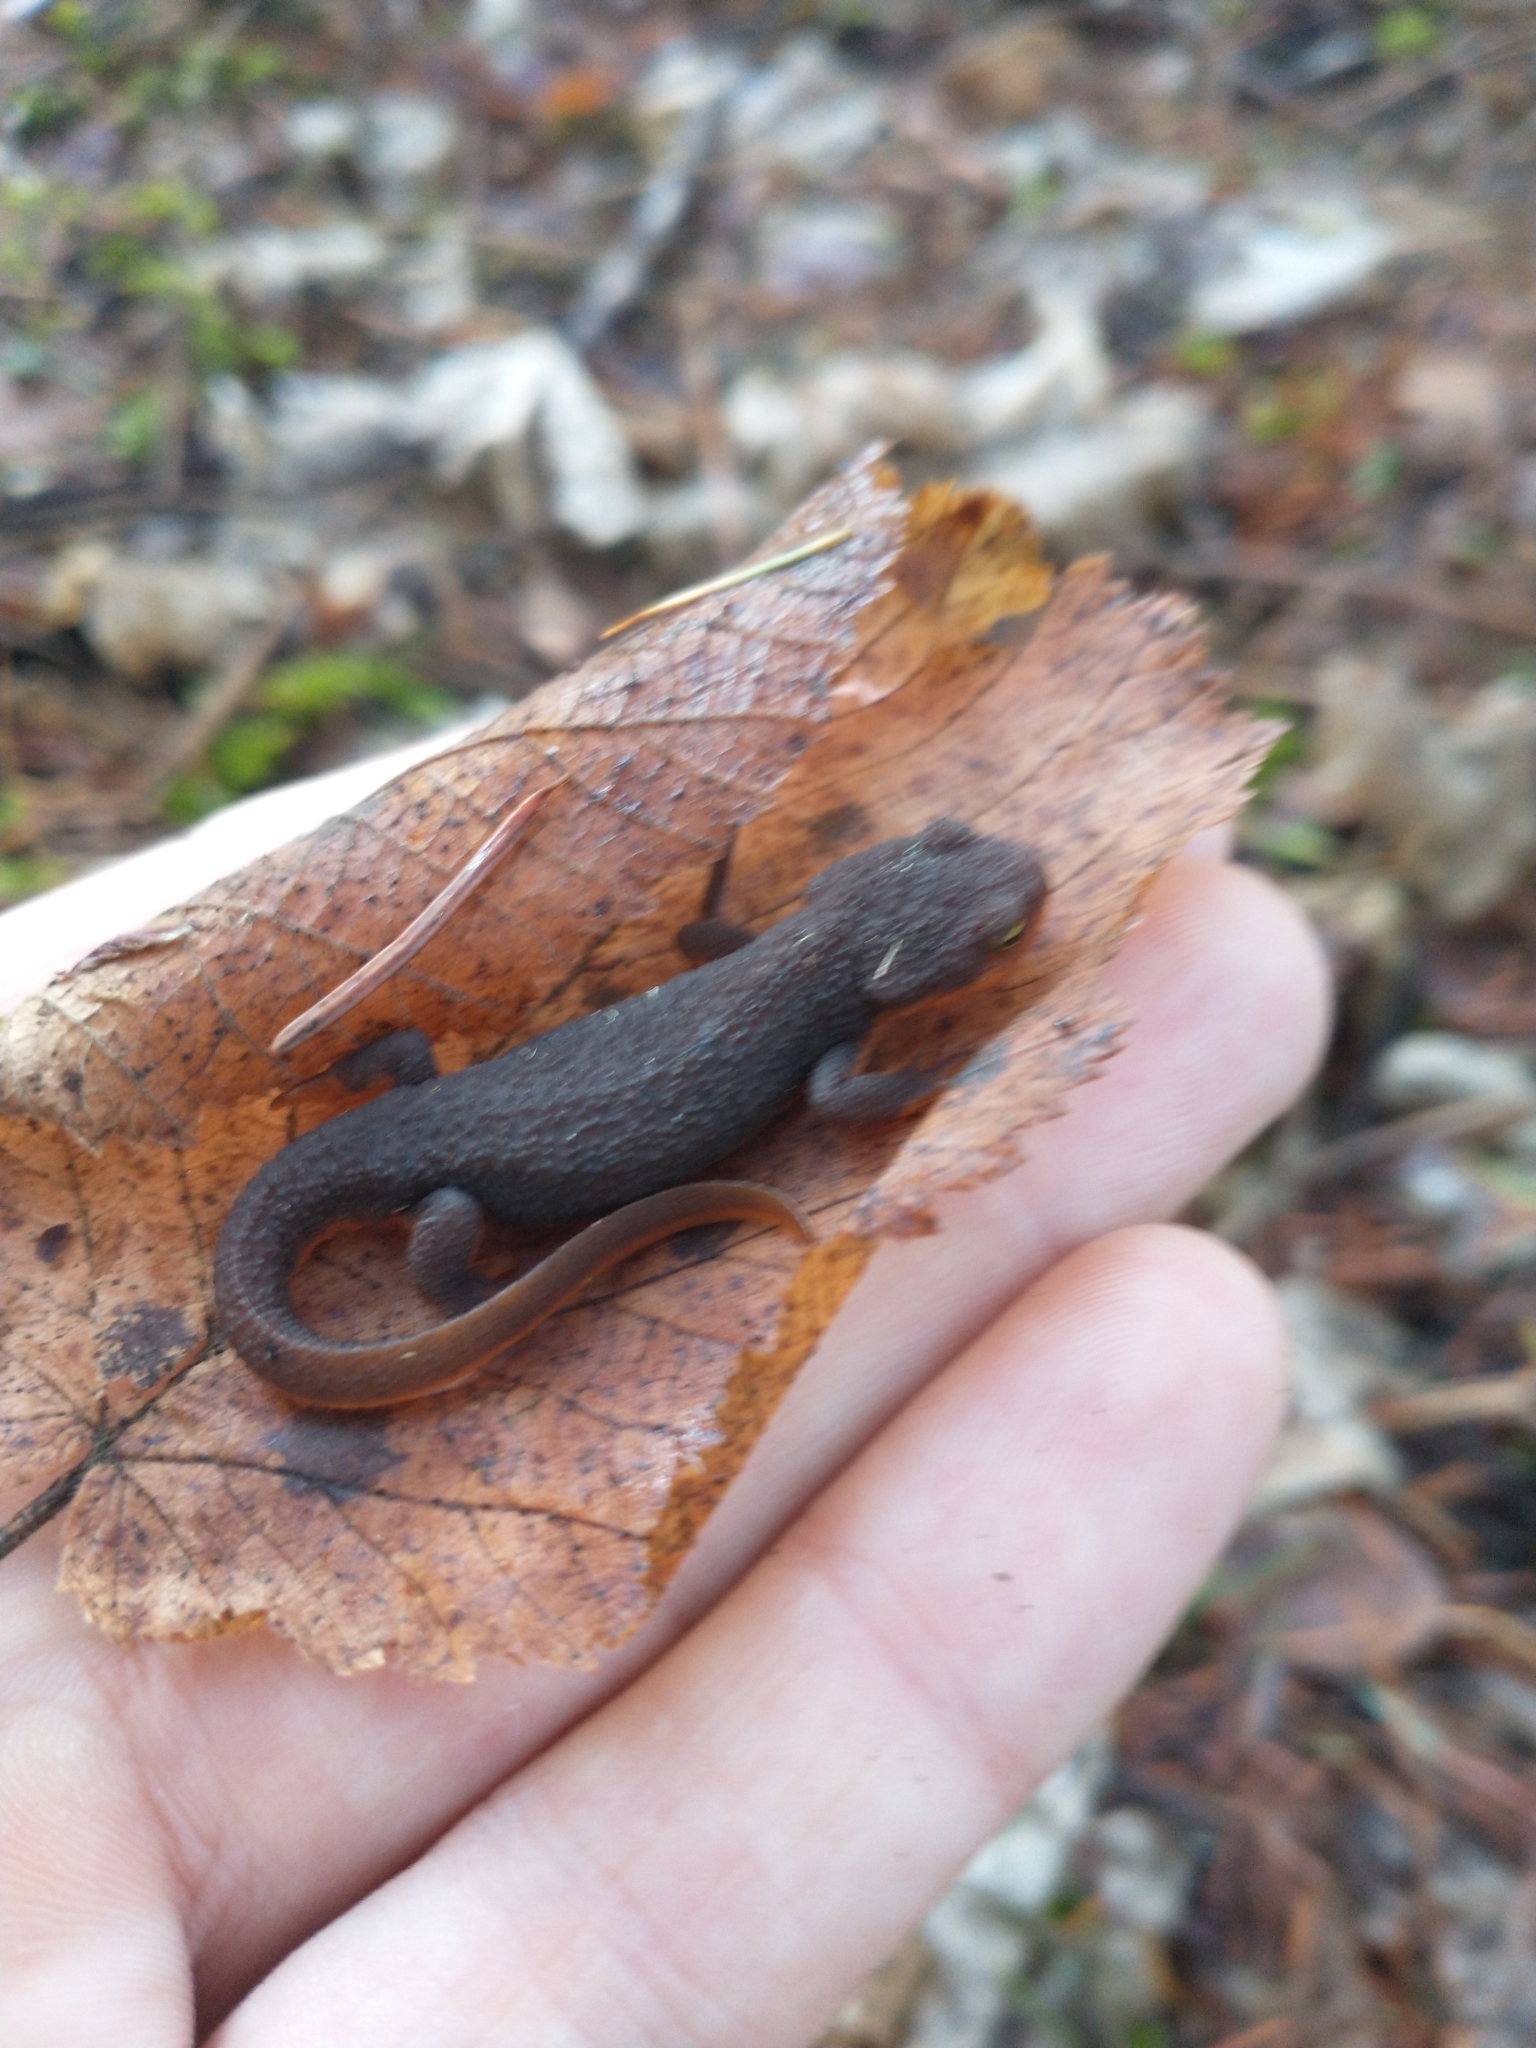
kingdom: Animalia
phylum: Chordata
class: Amphibia
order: Caudata
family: Salamandridae
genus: Taricha
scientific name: Taricha granulosa
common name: Roughskin newt
